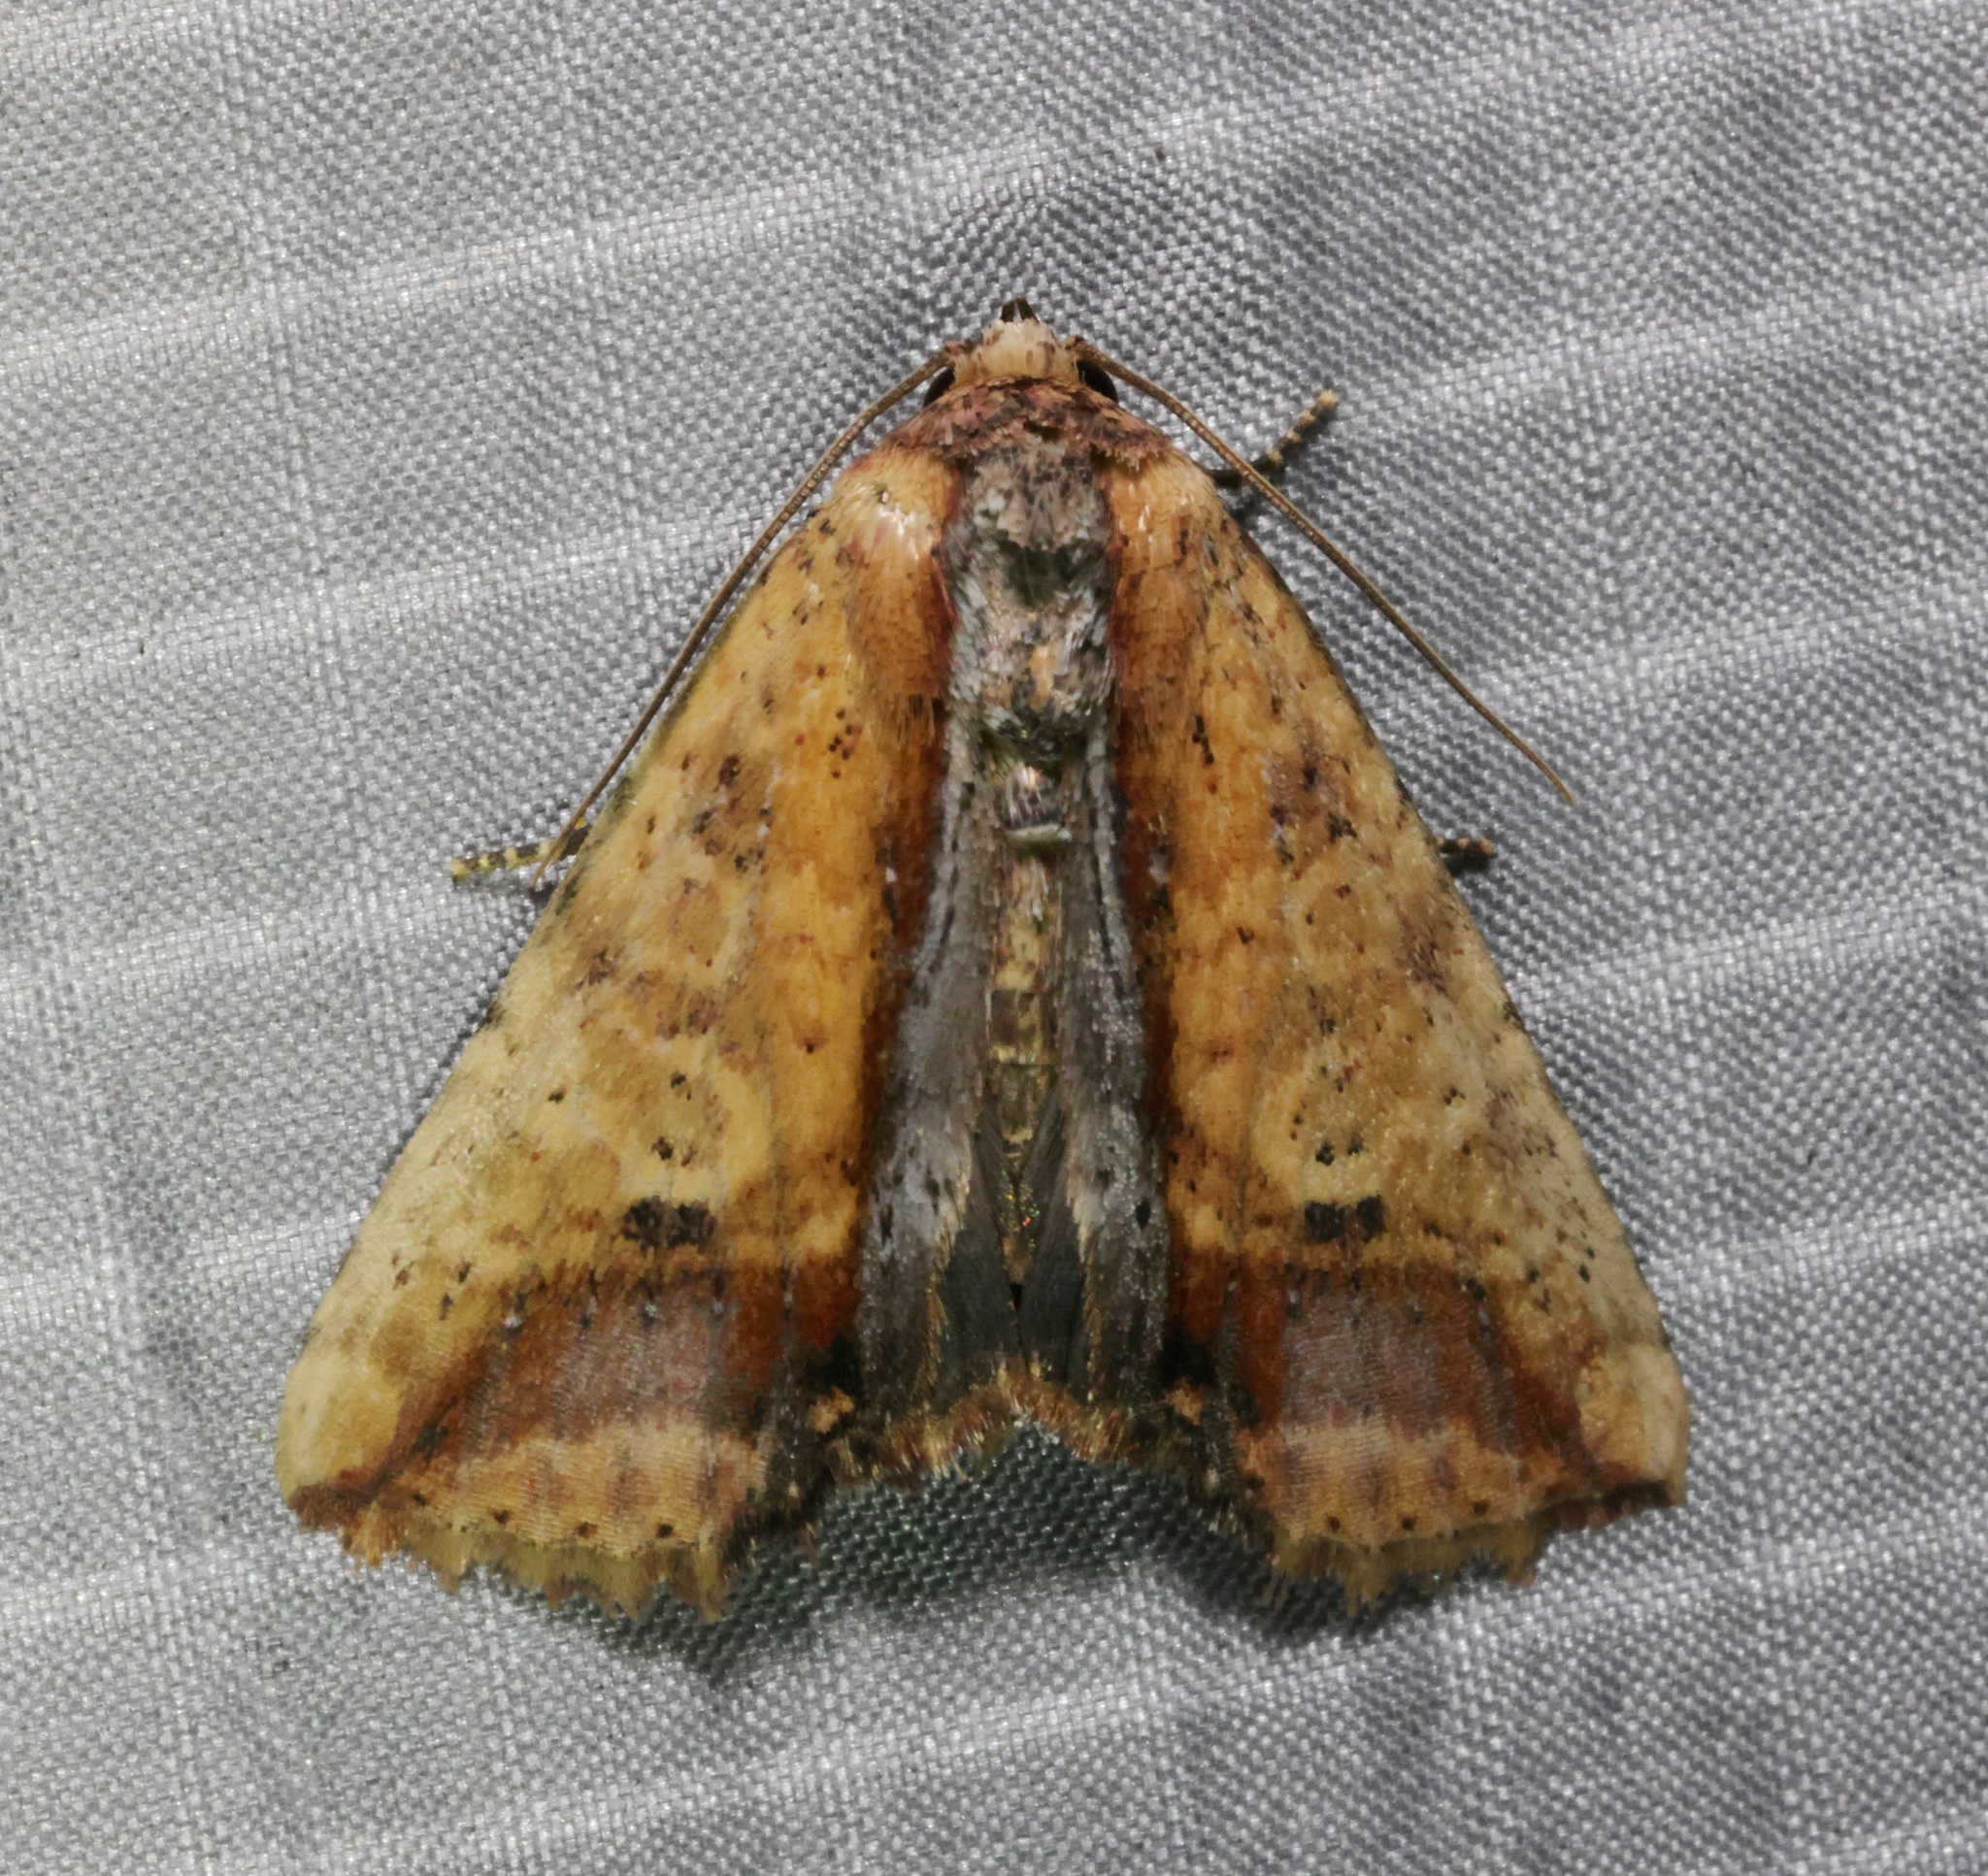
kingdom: Animalia
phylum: Arthropoda
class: Insecta
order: Lepidoptera
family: Noctuidae
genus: Bagada
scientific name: Bagada spicea
